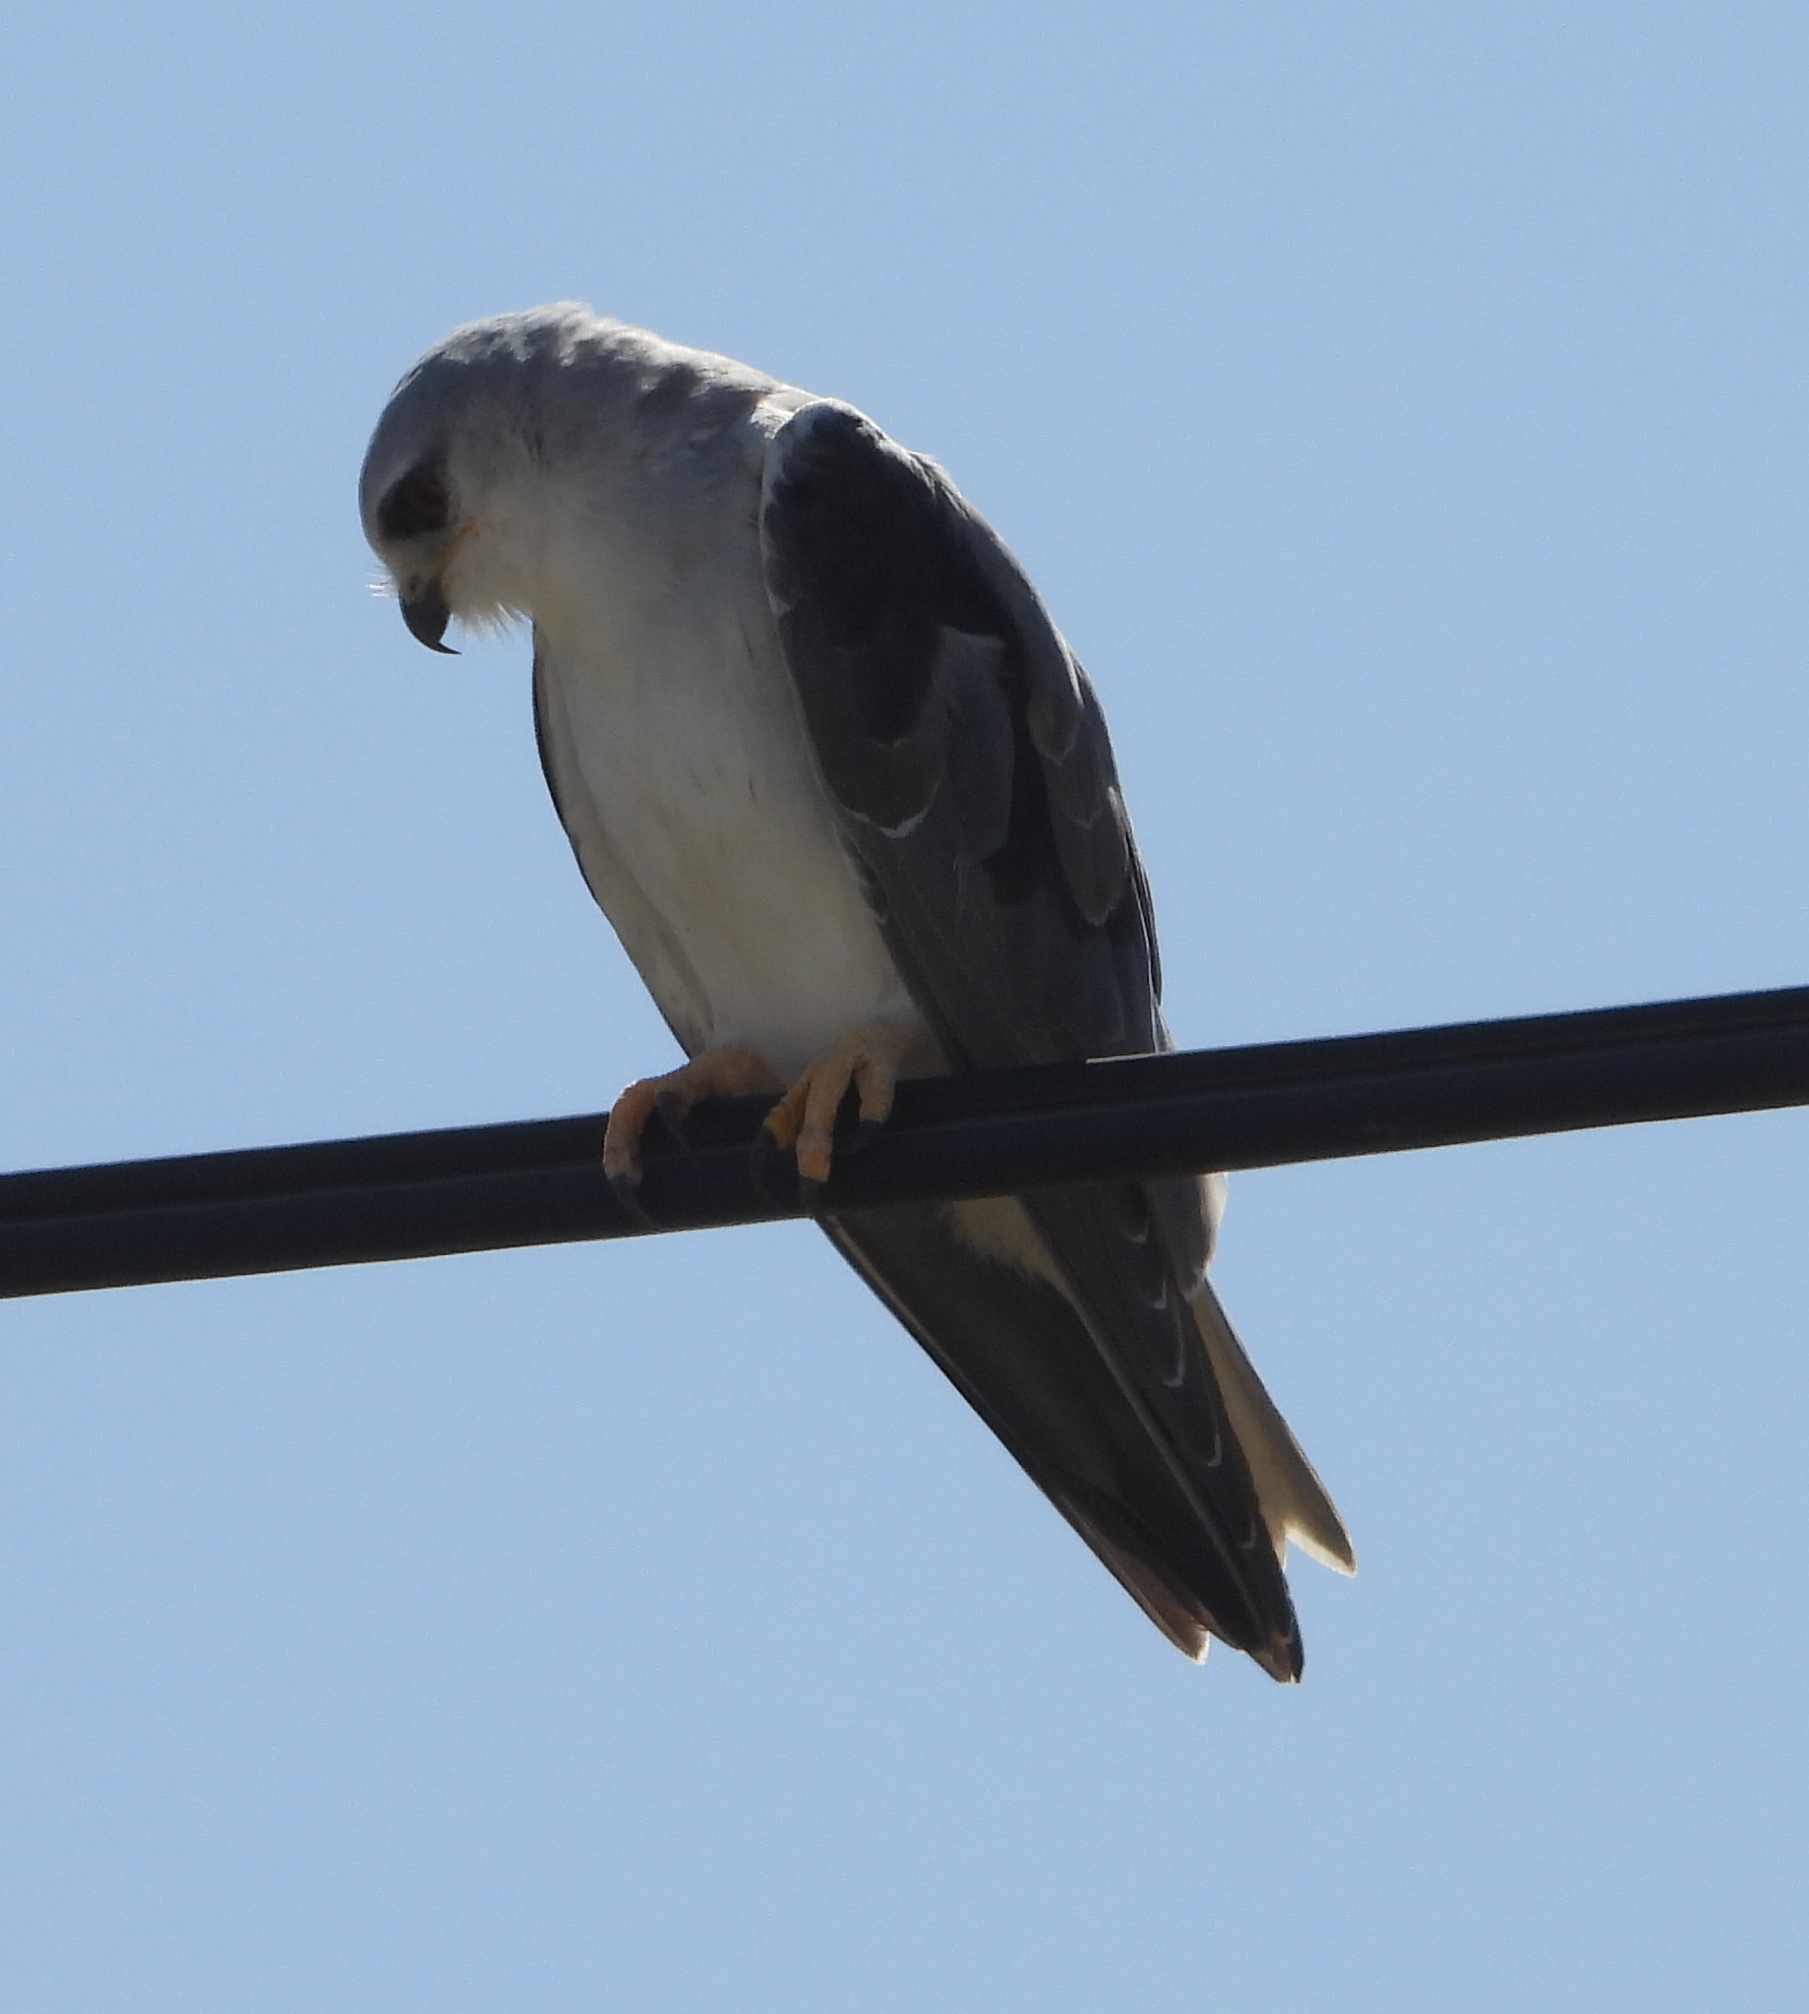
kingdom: Animalia
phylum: Chordata
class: Aves
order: Accipitriformes
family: Accipitridae
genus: Elanus
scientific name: Elanus caeruleus
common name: Black-winged kite
